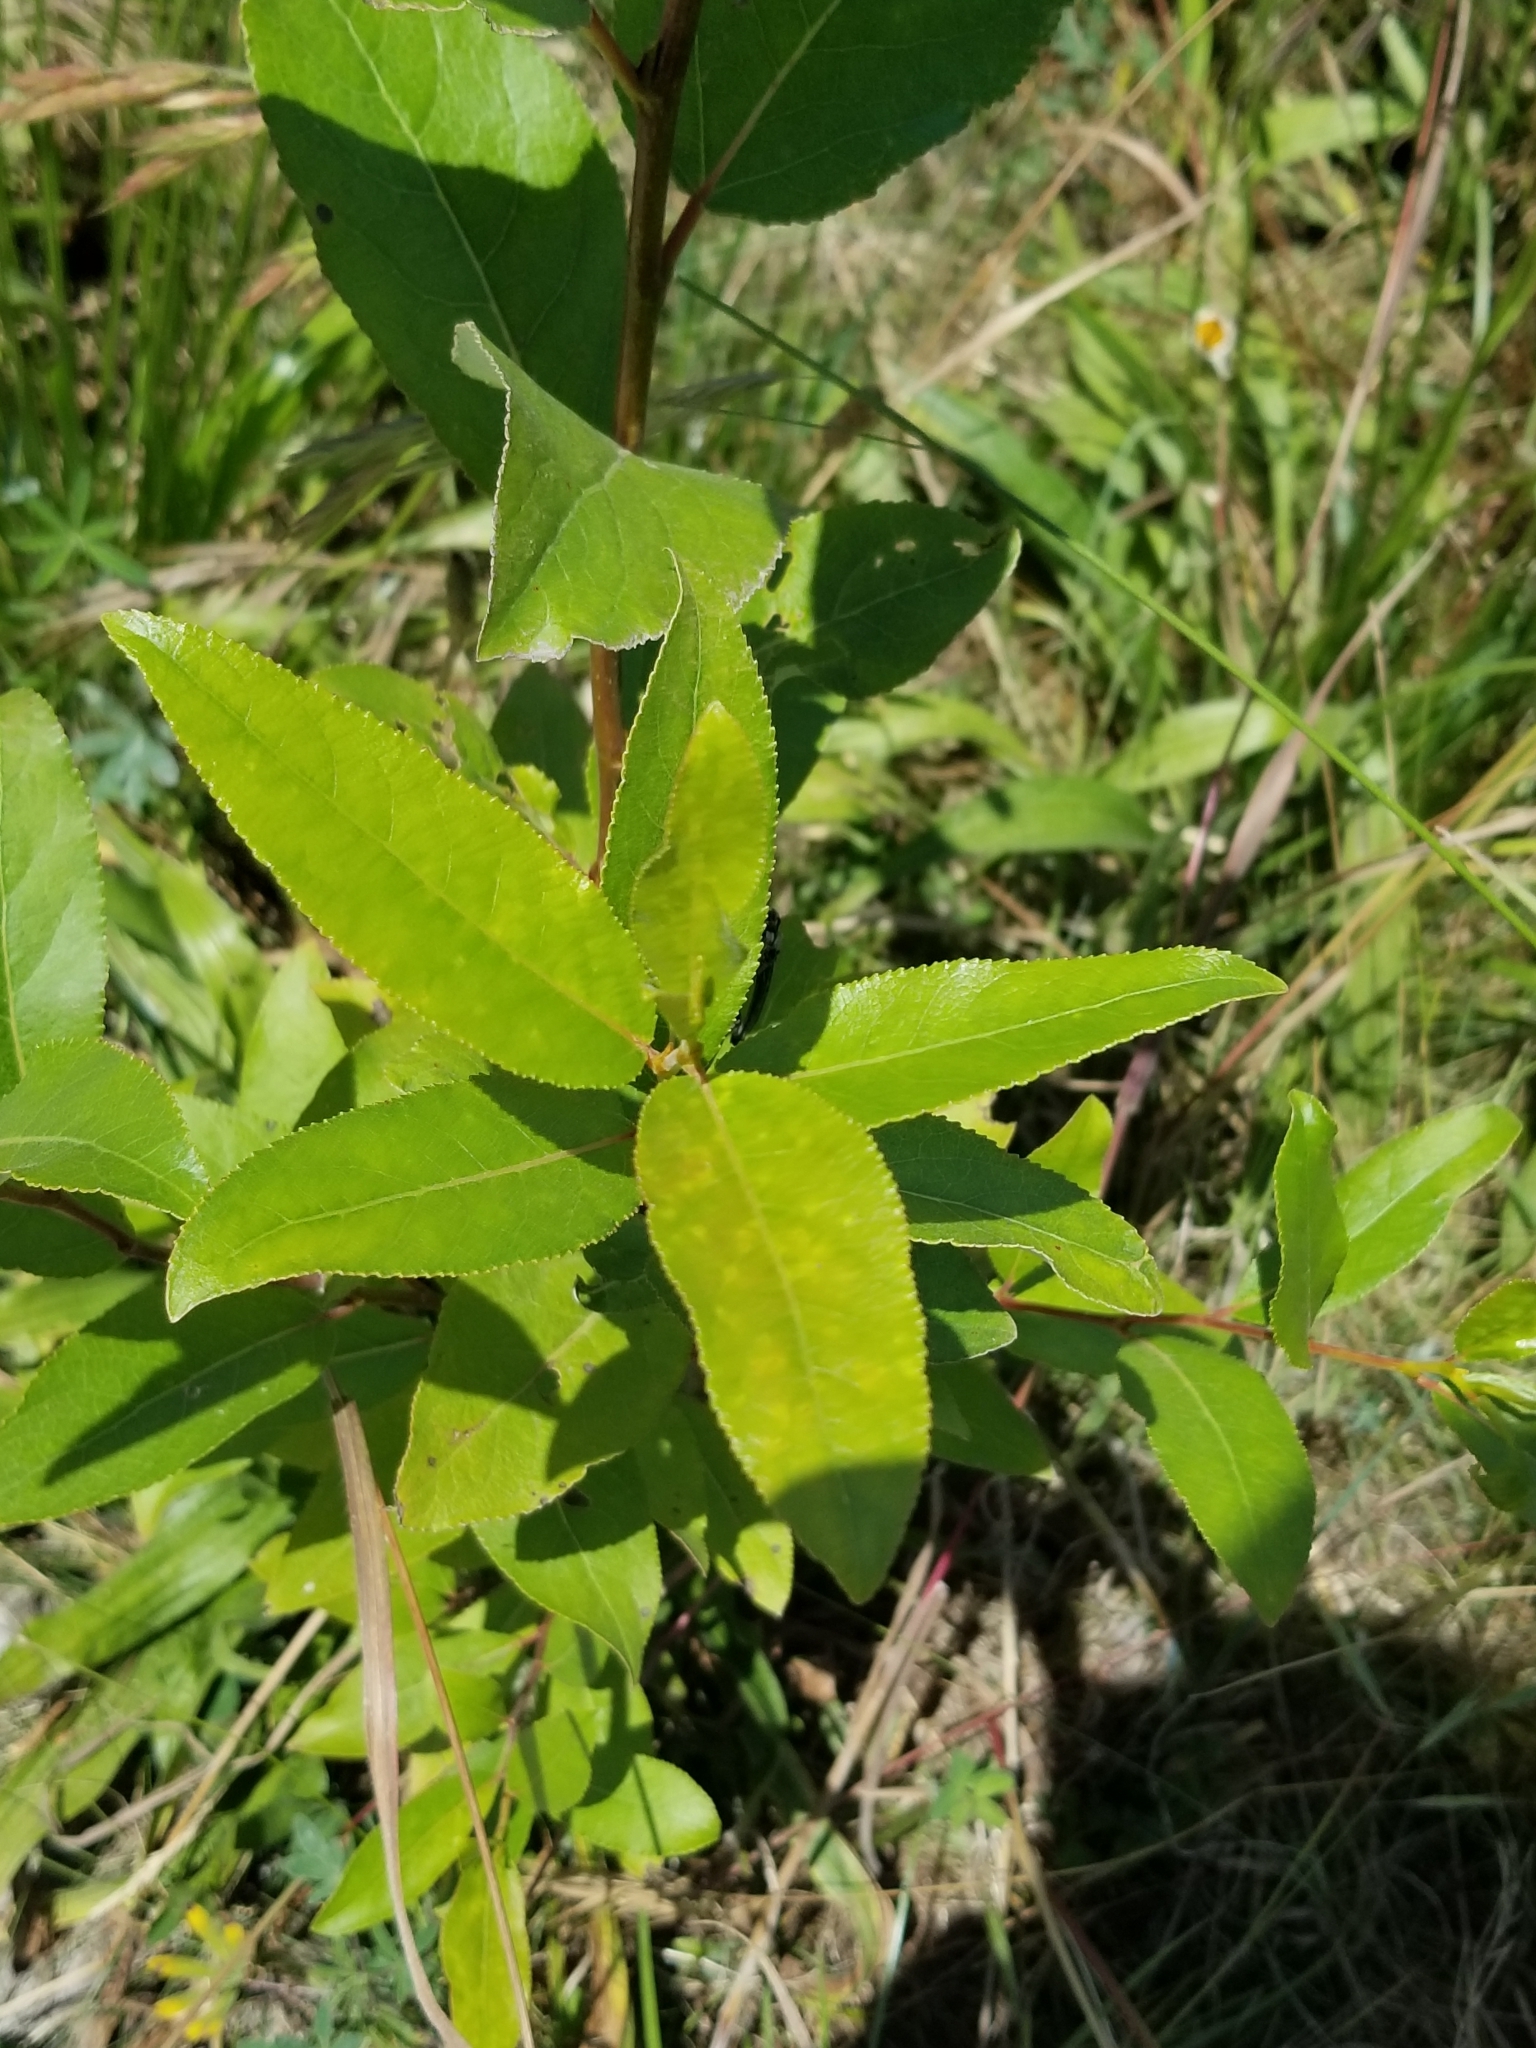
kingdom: Plantae
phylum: Tracheophyta
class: Magnoliopsida
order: Malpighiales
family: Salicaceae
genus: Populus
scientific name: Populus trichocarpa
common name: Black cottonwood
